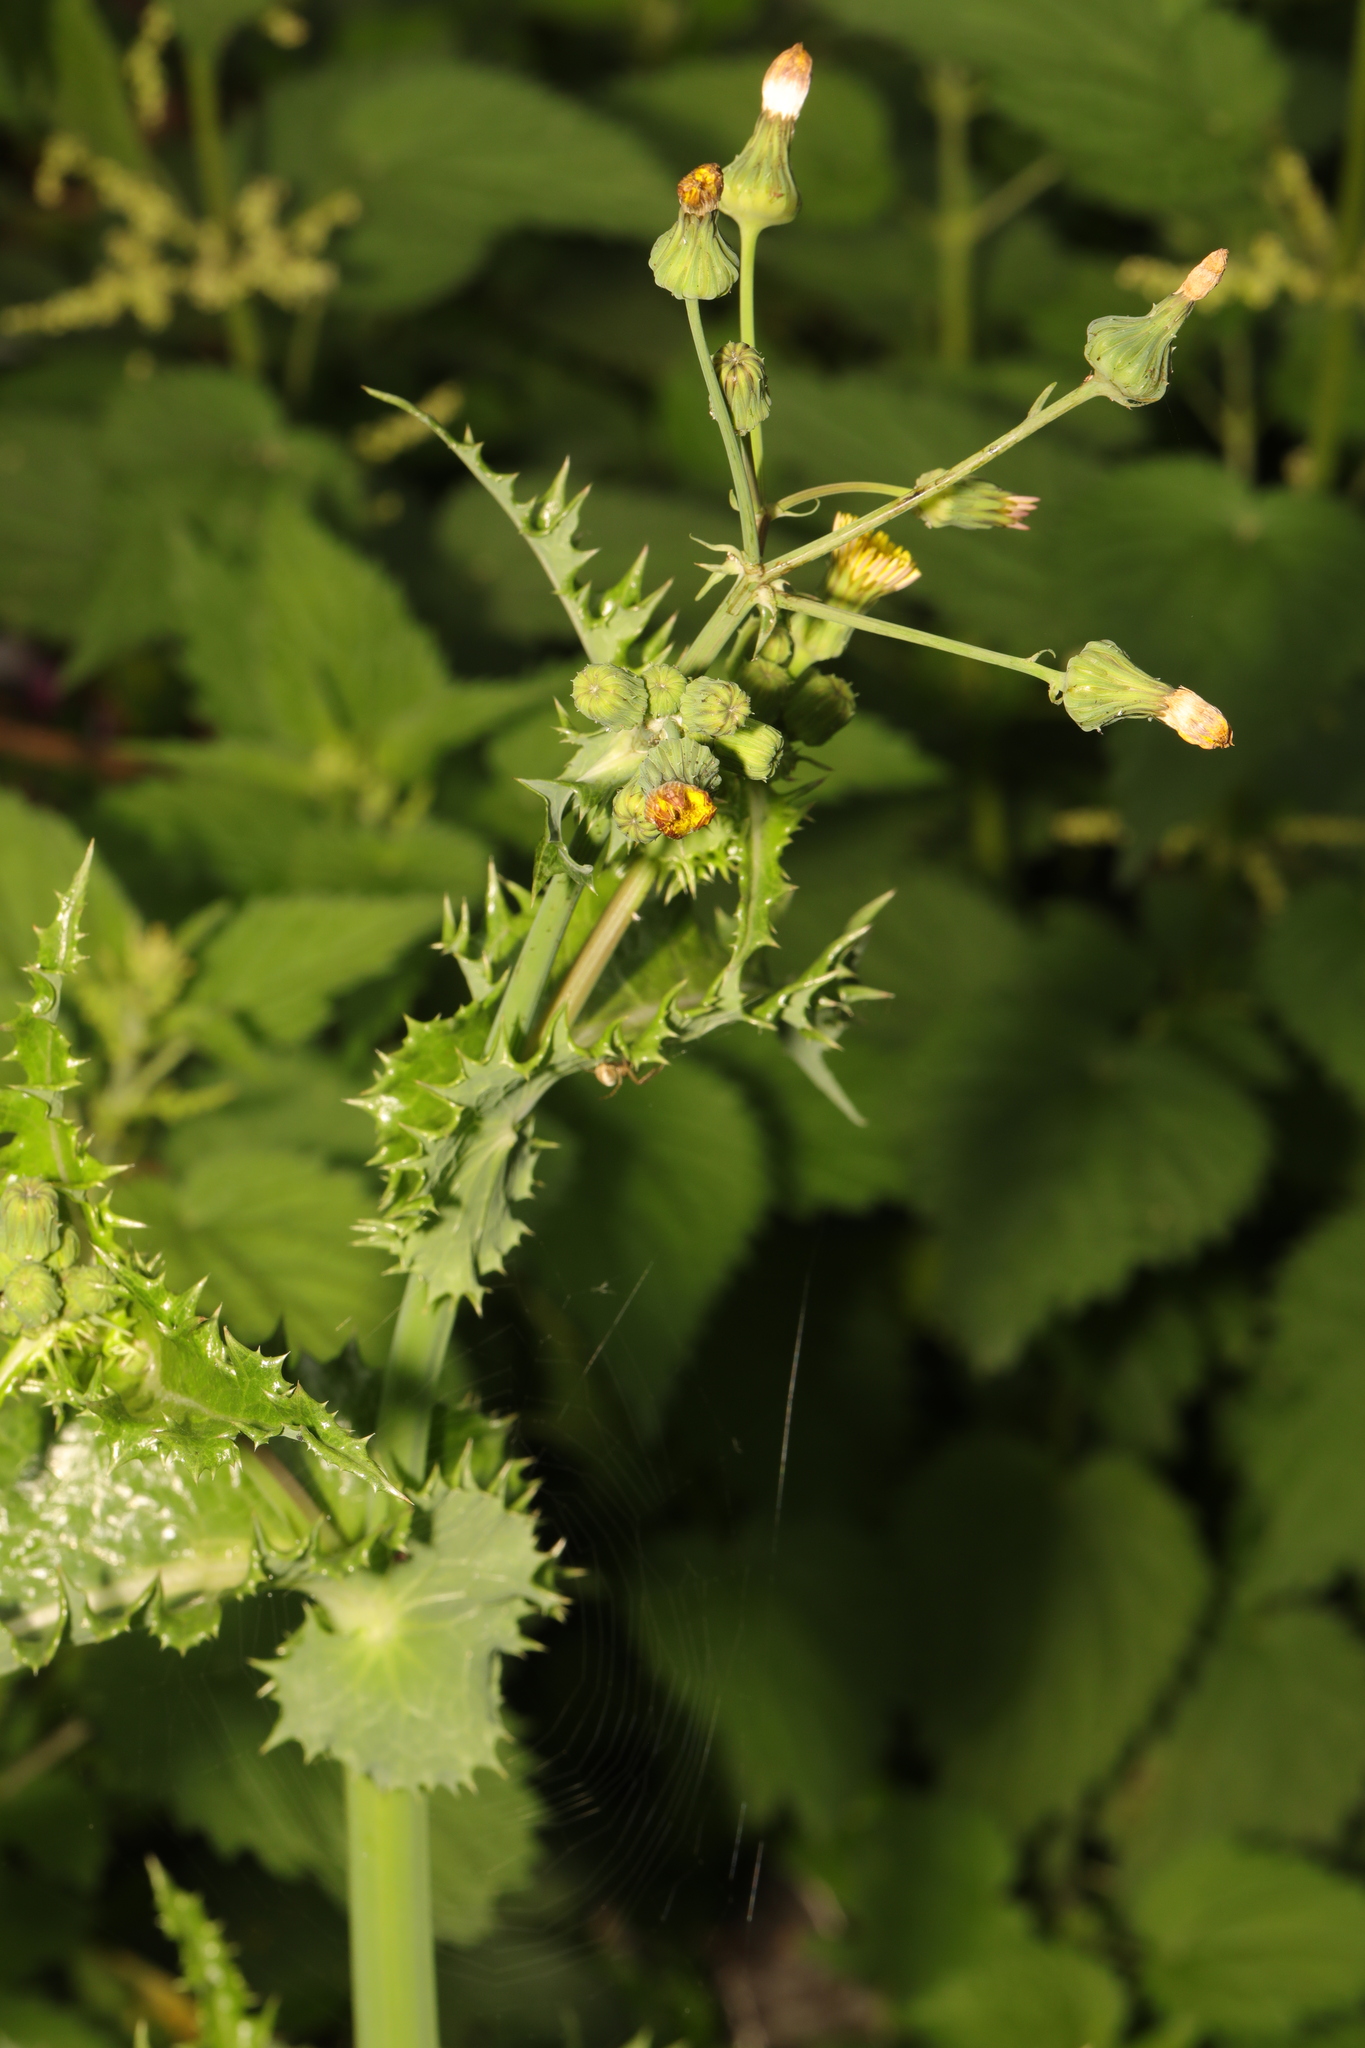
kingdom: Plantae
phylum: Tracheophyta
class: Magnoliopsida
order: Asterales
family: Asteraceae
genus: Sonchus
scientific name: Sonchus asper
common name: Prickly sow-thistle
